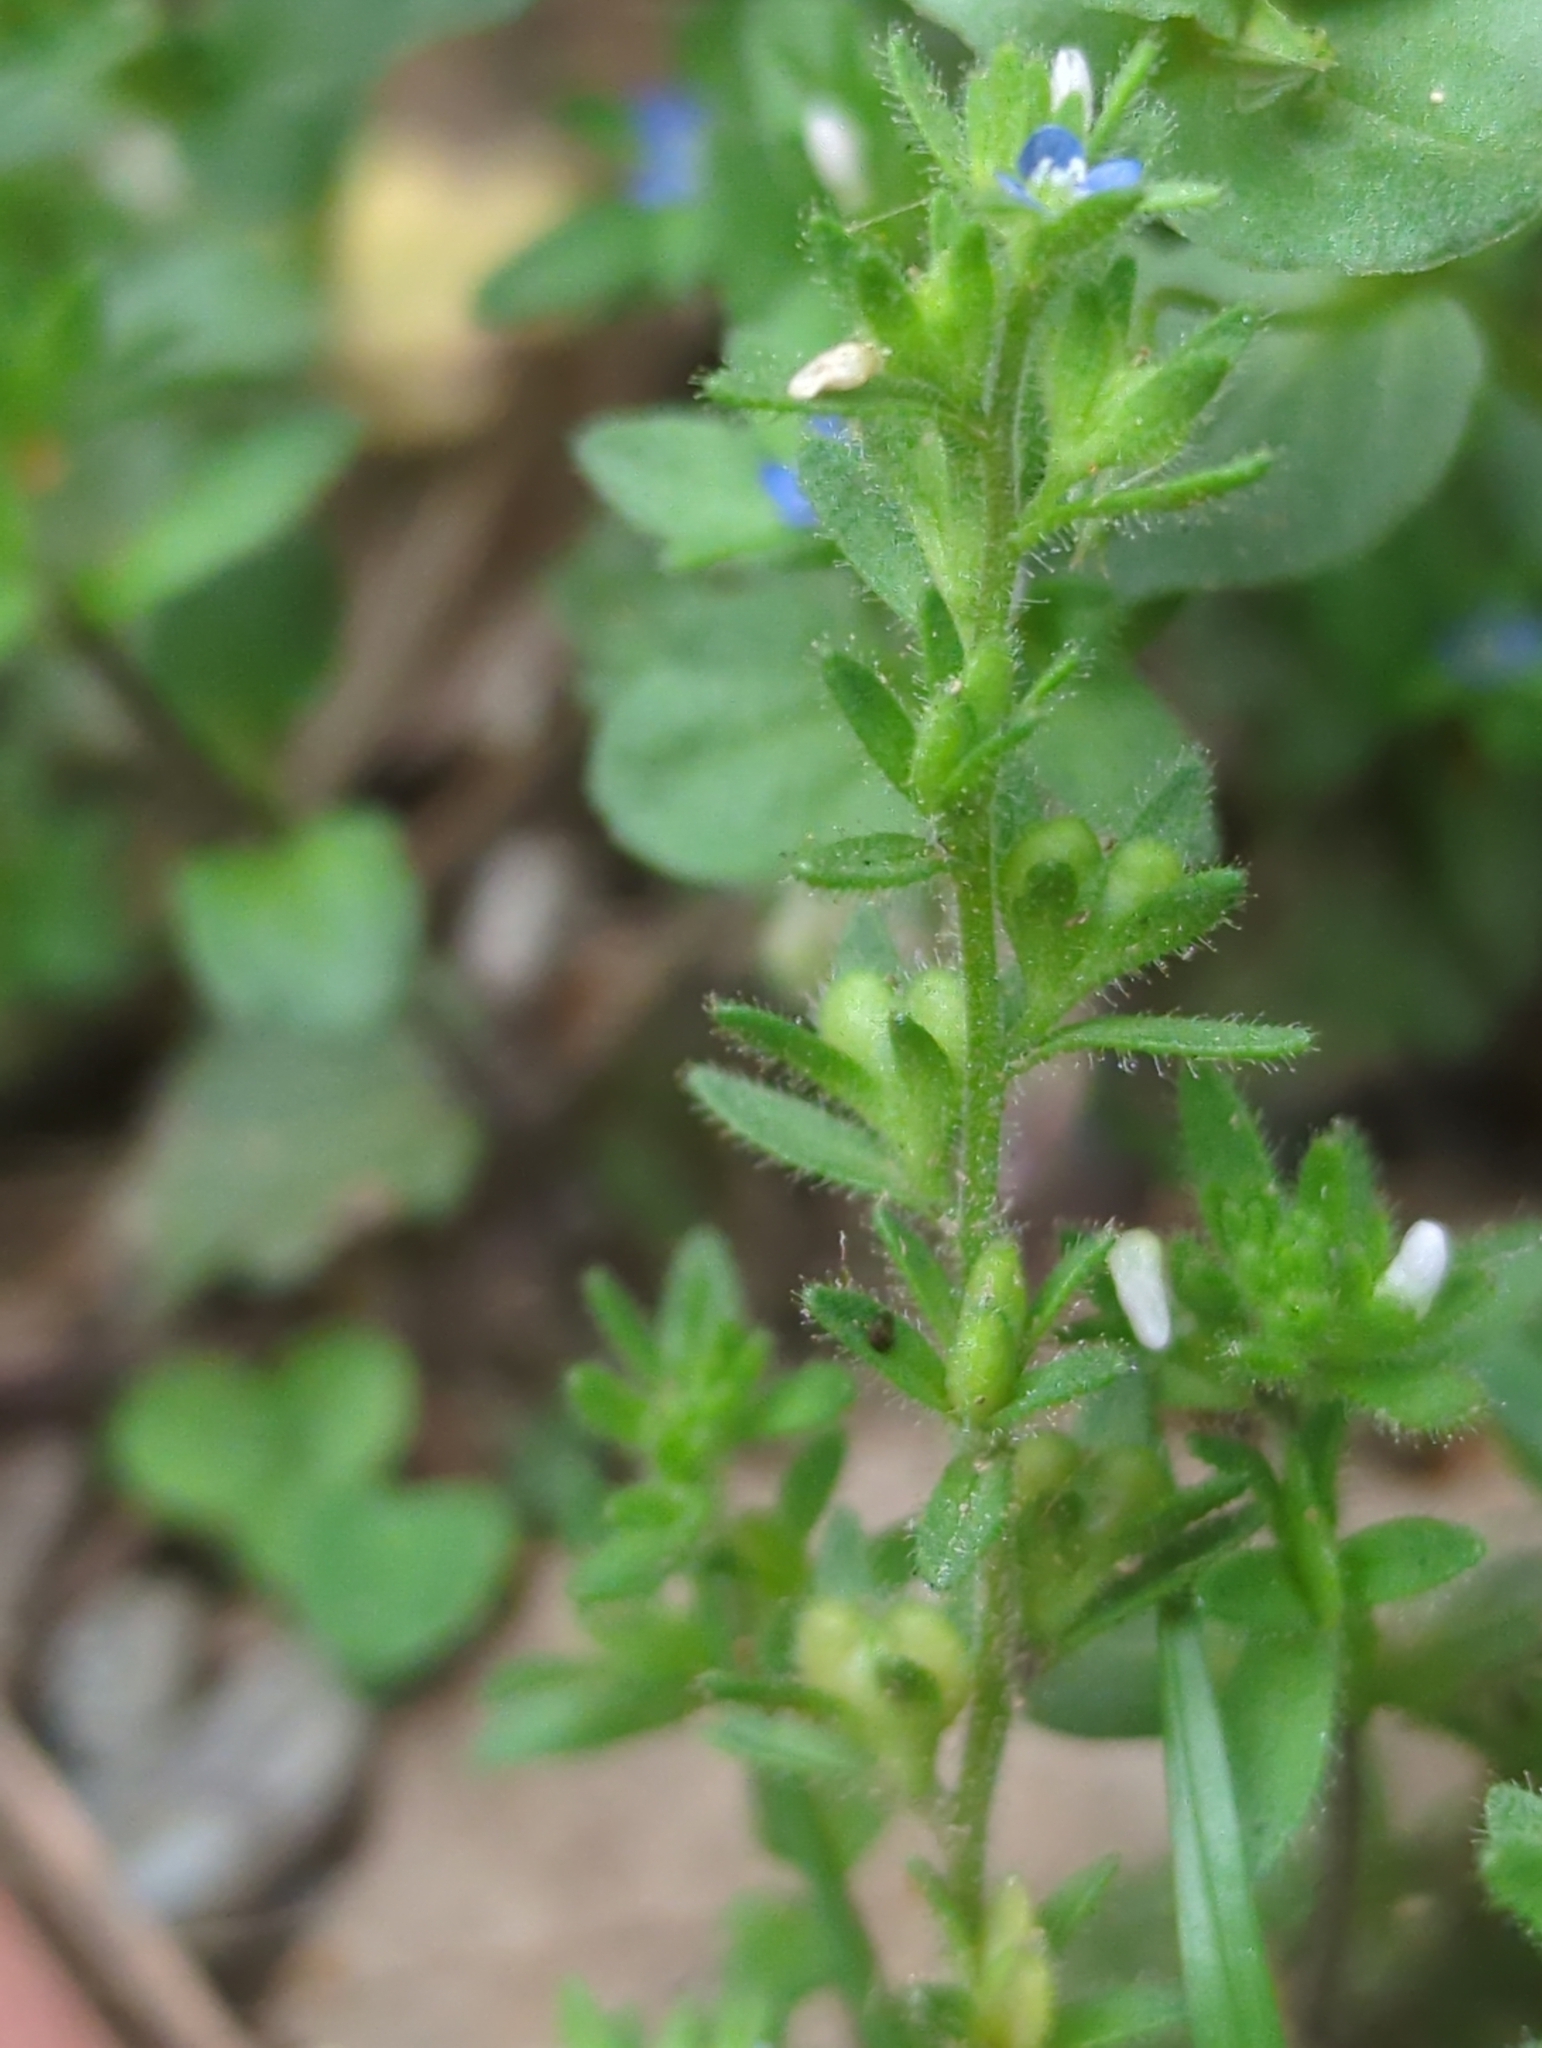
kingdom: Plantae
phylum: Tracheophyta
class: Magnoliopsida
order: Lamiales
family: Plantaginaceae
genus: Veronica
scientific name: Veronica arvensis
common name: Corn speedwell
